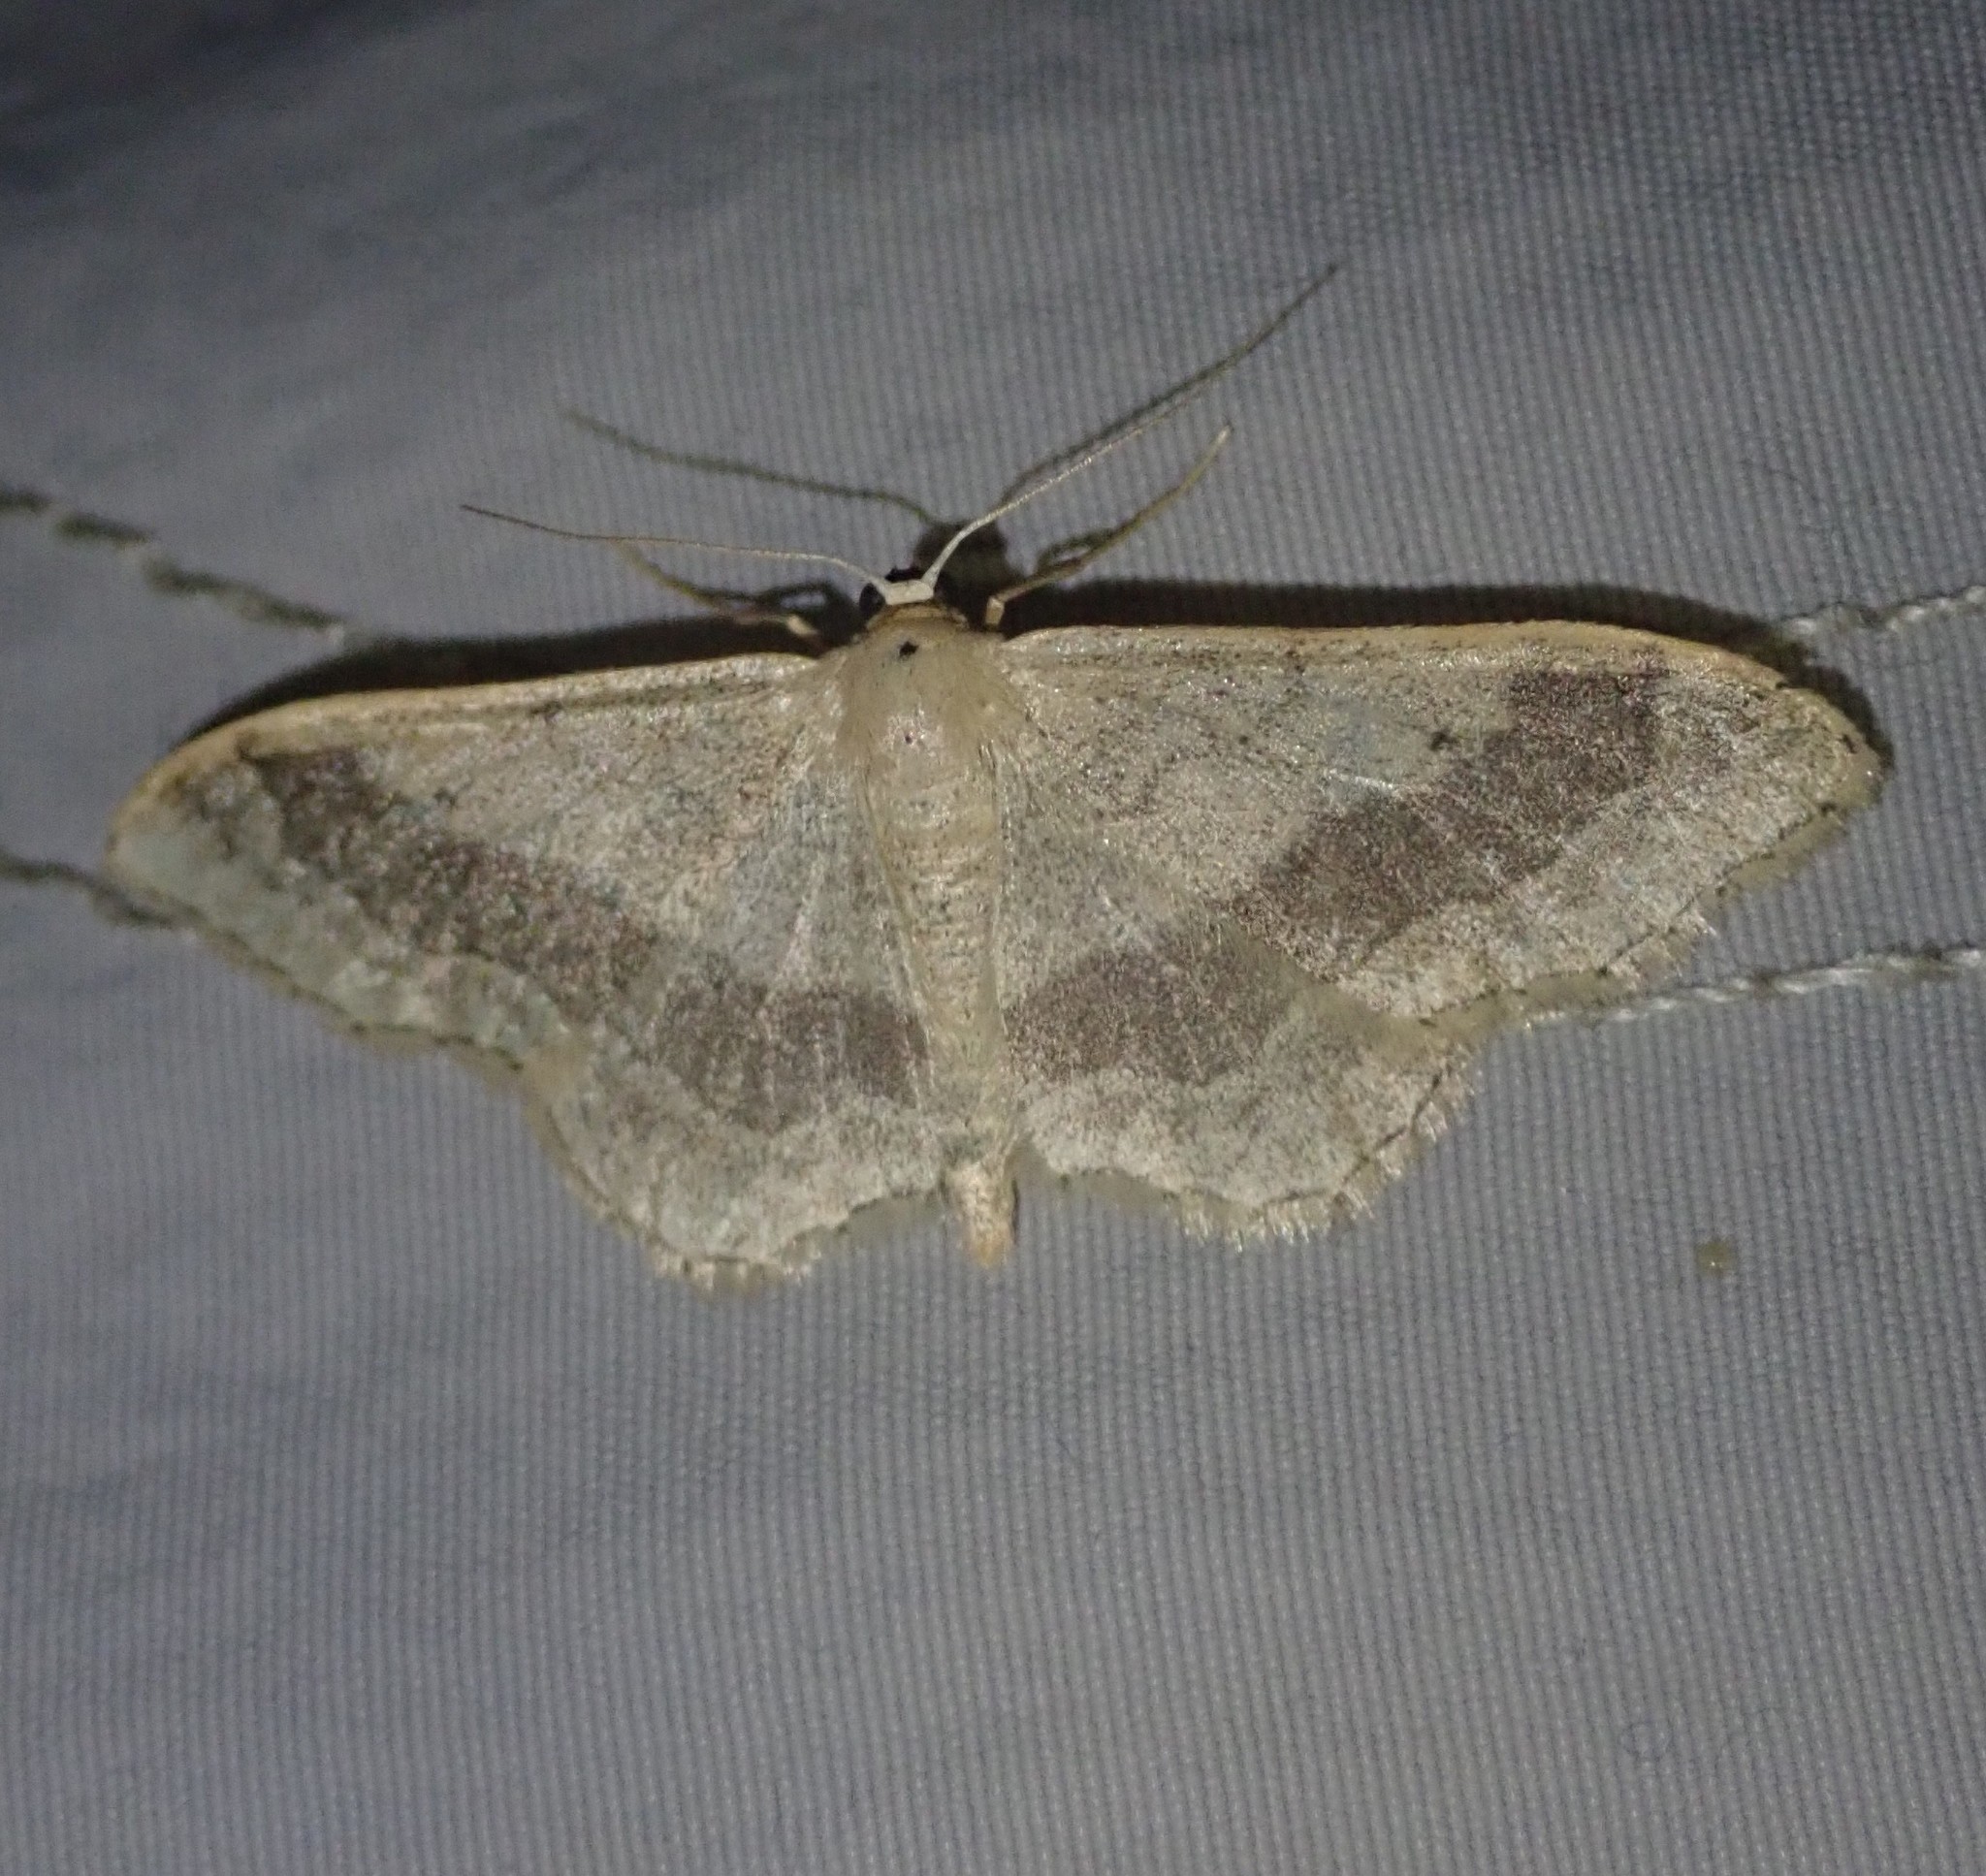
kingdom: Animalia
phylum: Arthropoda
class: Insecta
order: Lepidoptera
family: Geometridae
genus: Idaea
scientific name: Idaea aversata
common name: Riband wave
